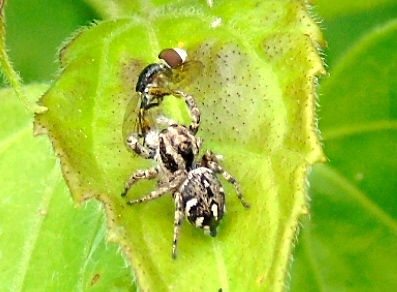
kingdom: Animalia
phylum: Arthropoda
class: Arachnida
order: Araneae
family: Salticidae
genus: Habronattus
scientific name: Habronattus
